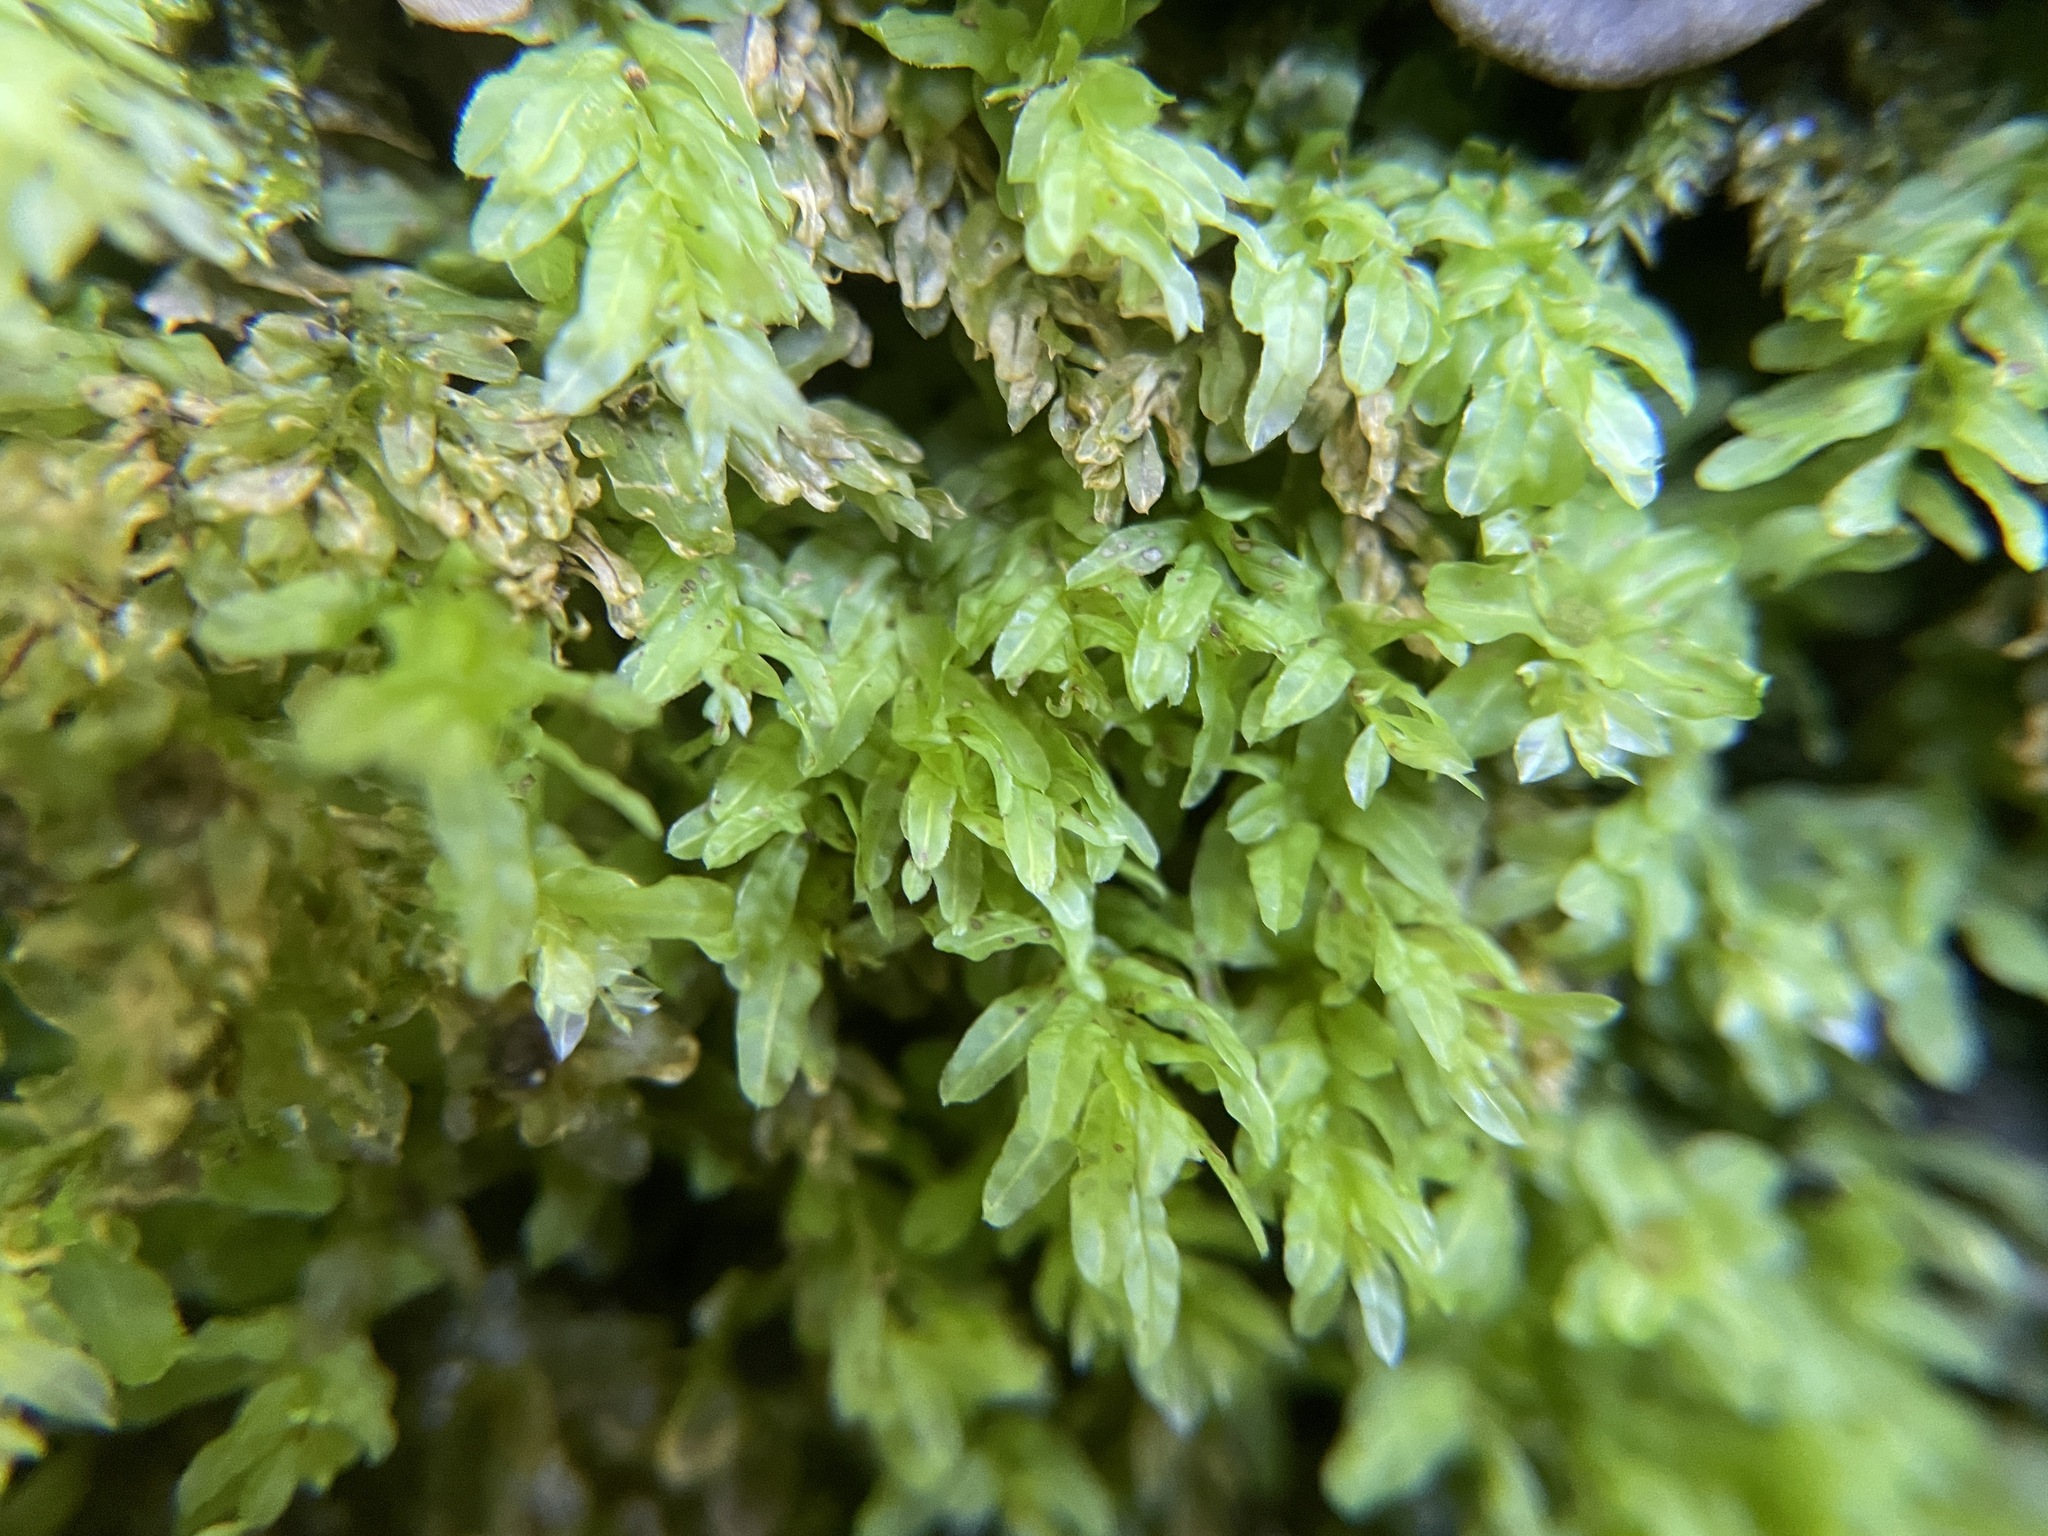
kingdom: Plantae
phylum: Bryophyta
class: Bryopsida
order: Bryales
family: Mniaceae
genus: Plagiomnium
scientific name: Plagiomnium undulatum
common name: Hart's-tongue thyme-moss
